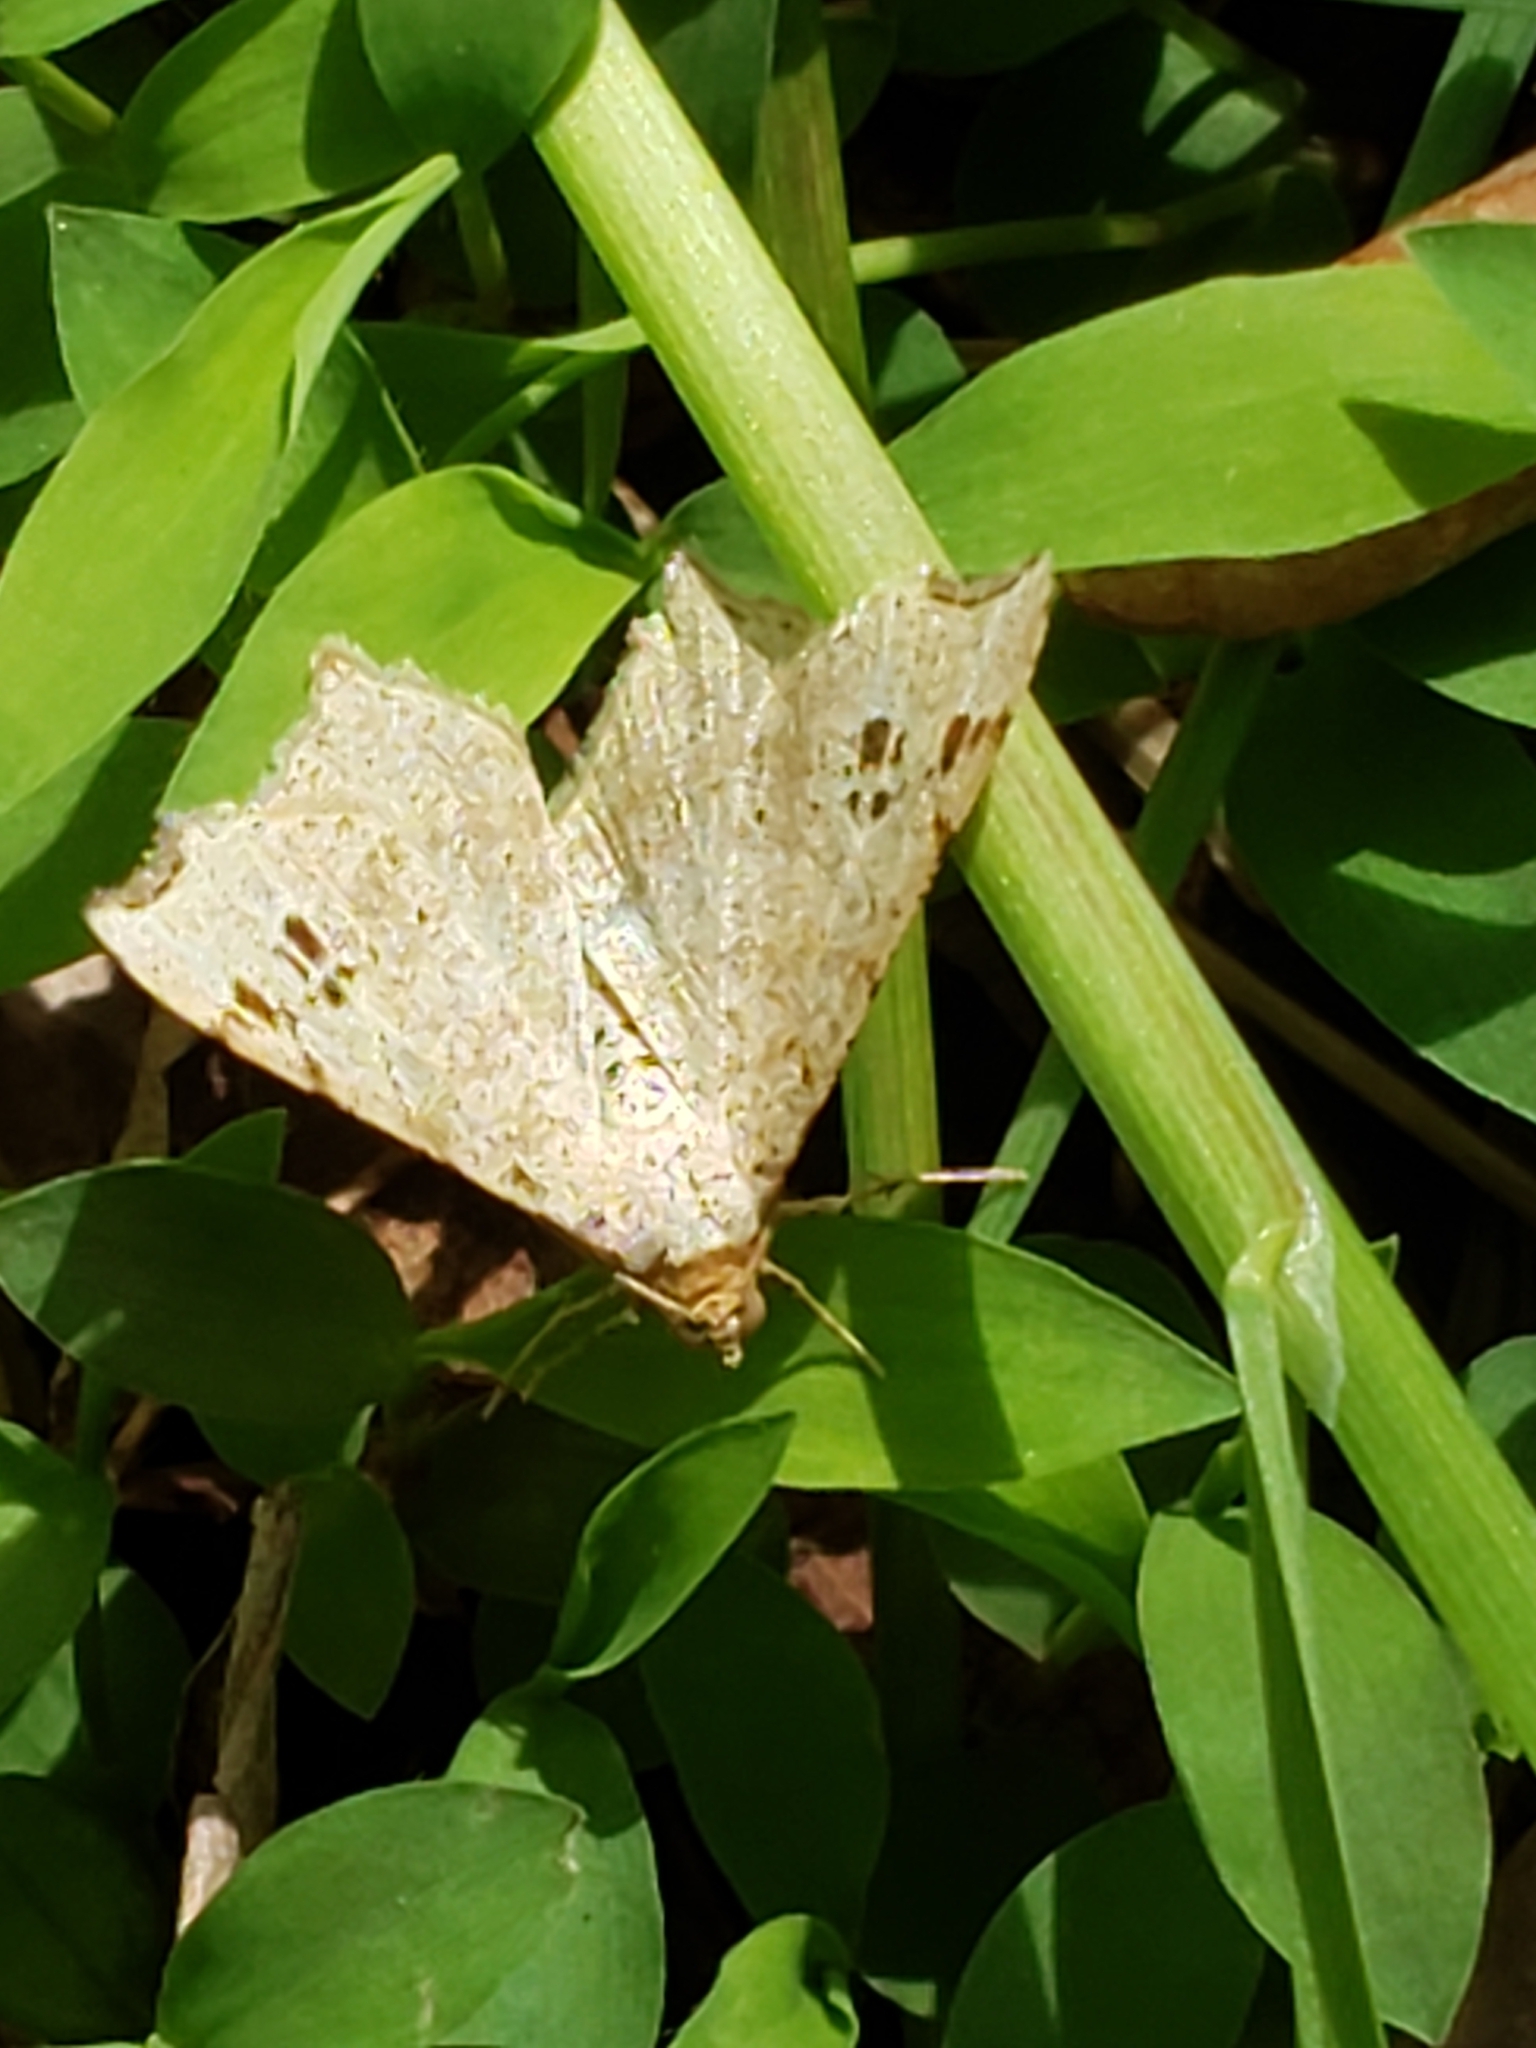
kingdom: Animalia
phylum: Arthropoda
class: Insecta
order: Lepidoptera
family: Geometridae
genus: Macaria
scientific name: Macaria aemulataria
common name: Common angle
